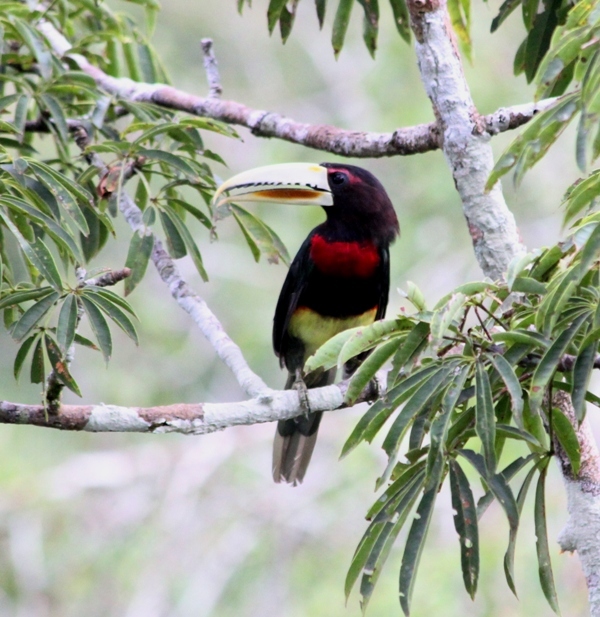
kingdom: Animalia
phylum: Chordata
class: Aves
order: Piciformes
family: Ramphastidae
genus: Pteroglossus
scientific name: Pteroglossus azara
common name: Ivory-billed aracari
